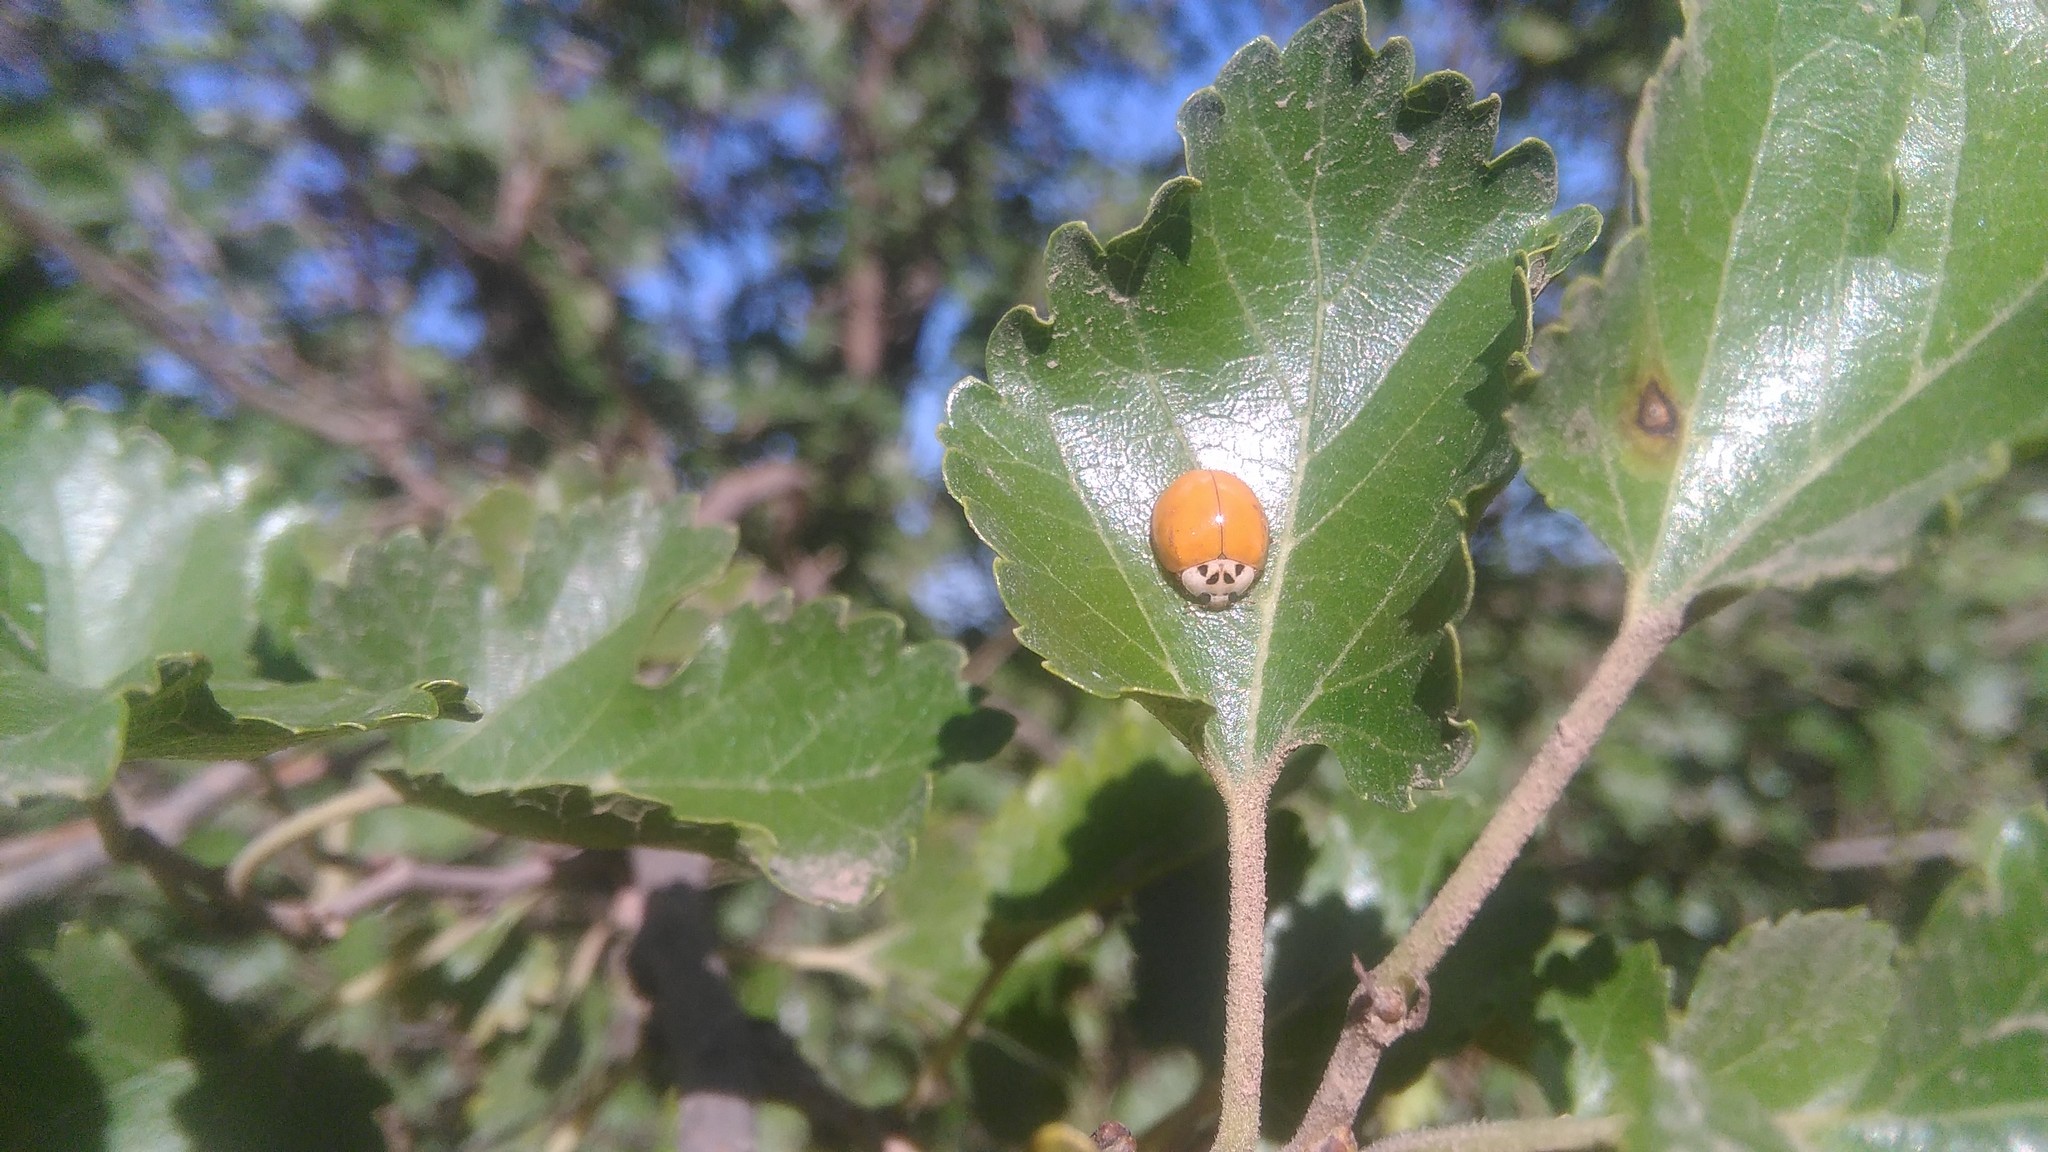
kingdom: Animalia
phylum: Arthropoda
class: Insecta
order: Coleoptera
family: Coccinellidae
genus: Harmonia
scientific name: Harmonia axyridis
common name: Harlequin ladybird
